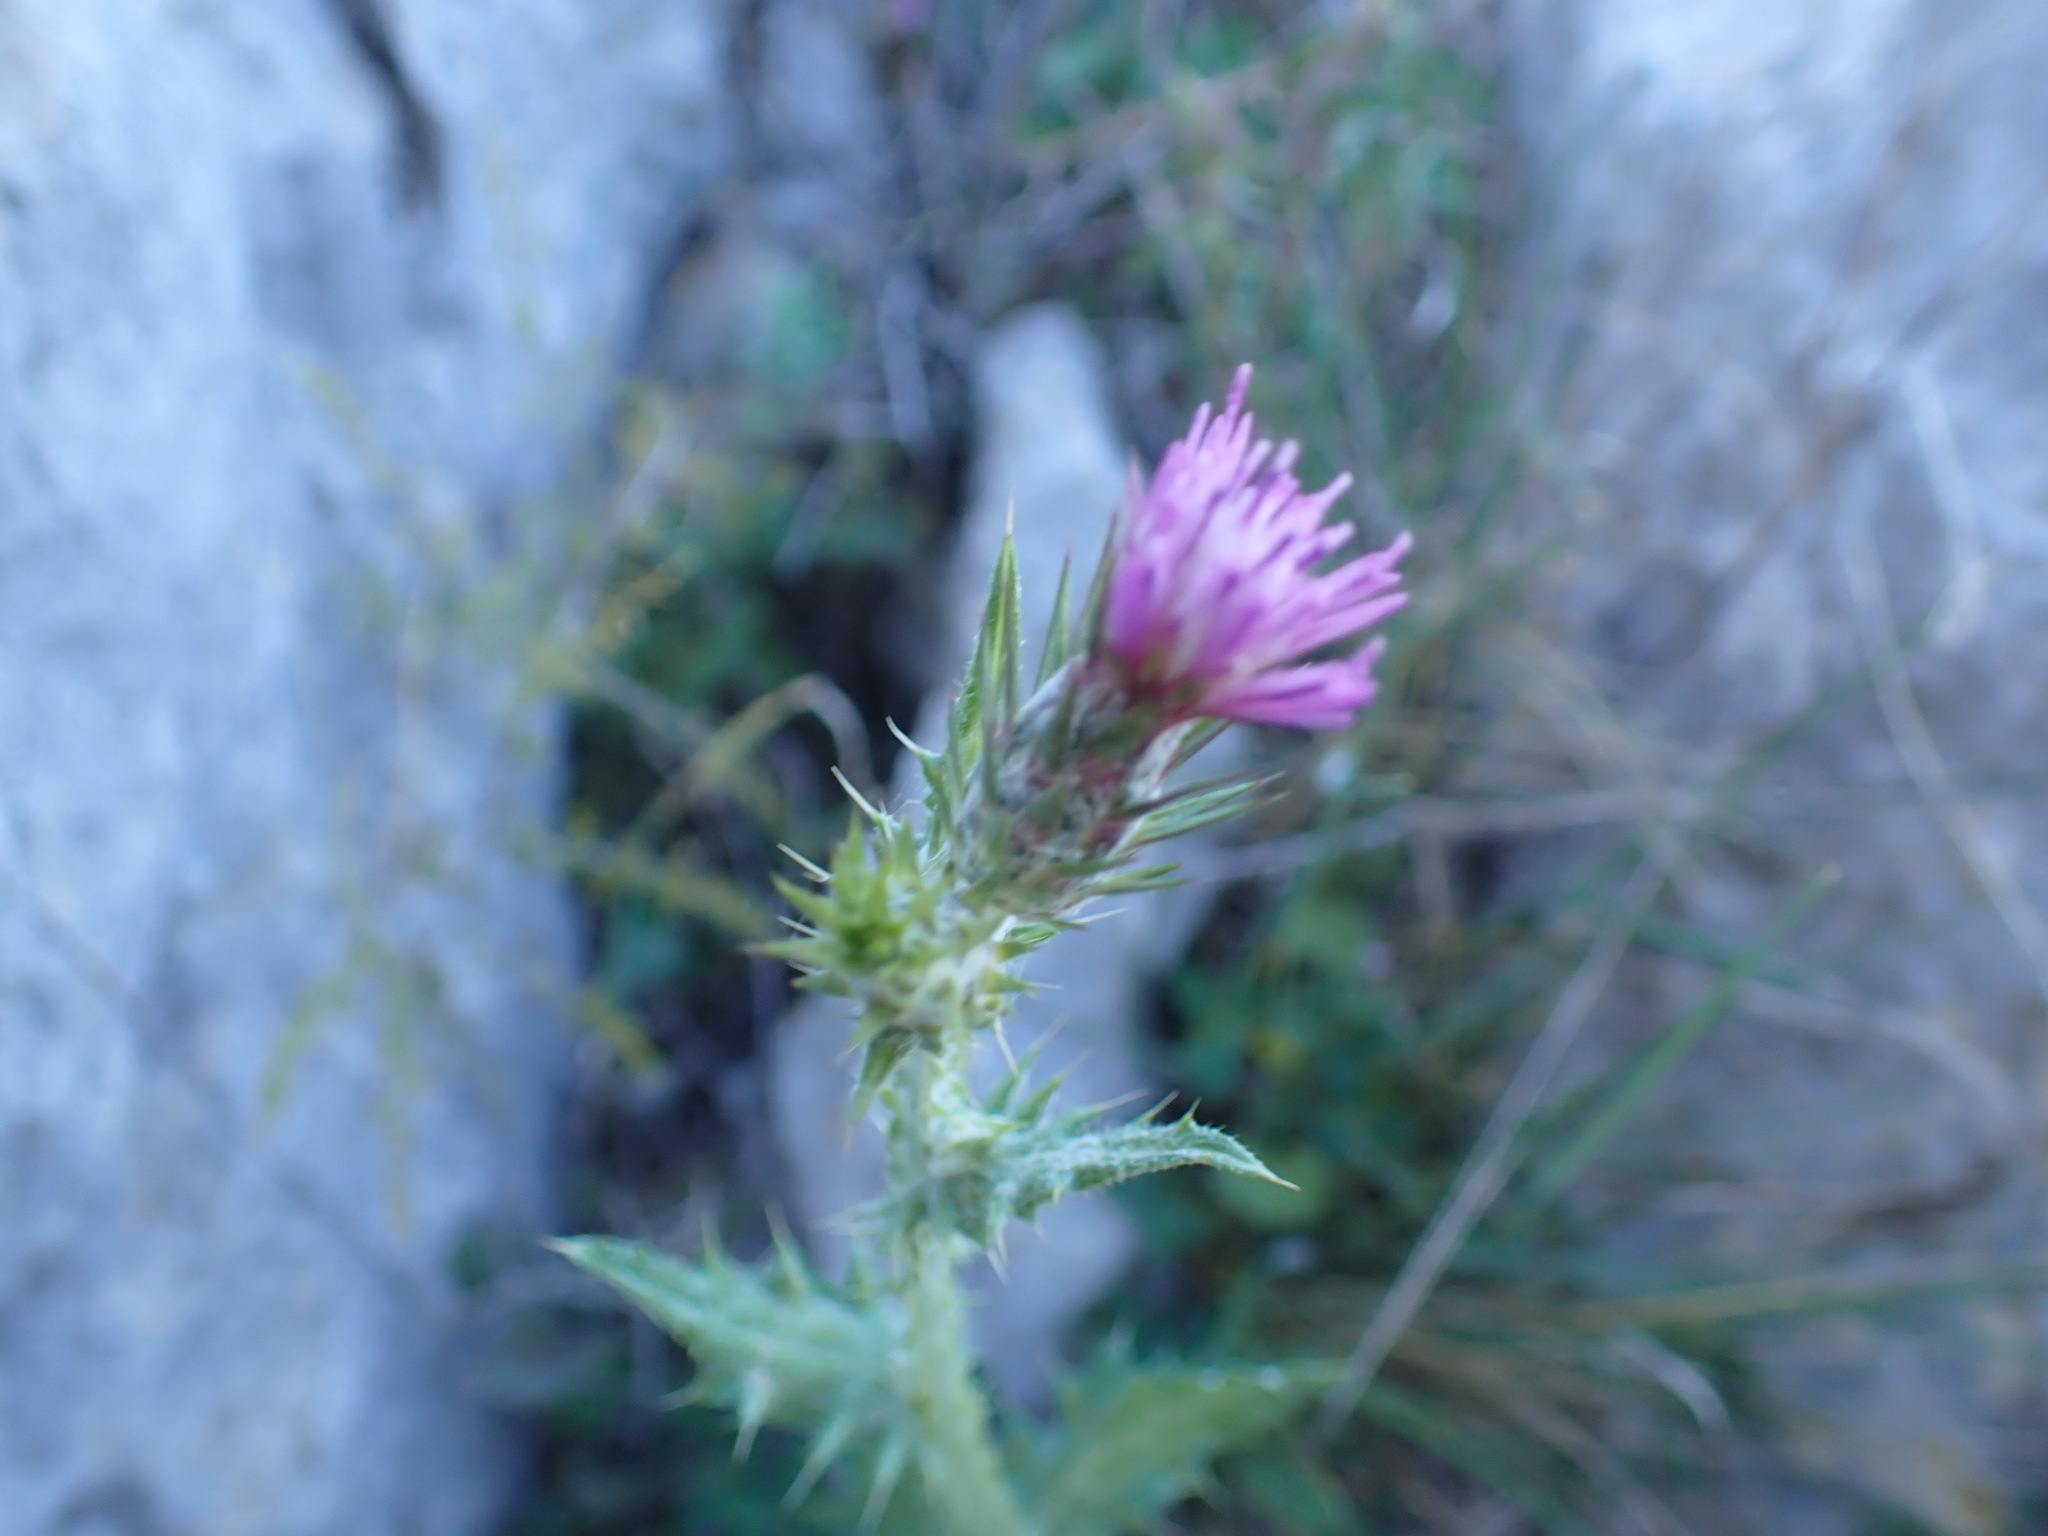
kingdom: Plantae
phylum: Tracheophyta
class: Magnoliopsida
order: Asterales
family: Asteraceae
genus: Carduus
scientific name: Carduus pycnocephalus
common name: Plymouth thistle
